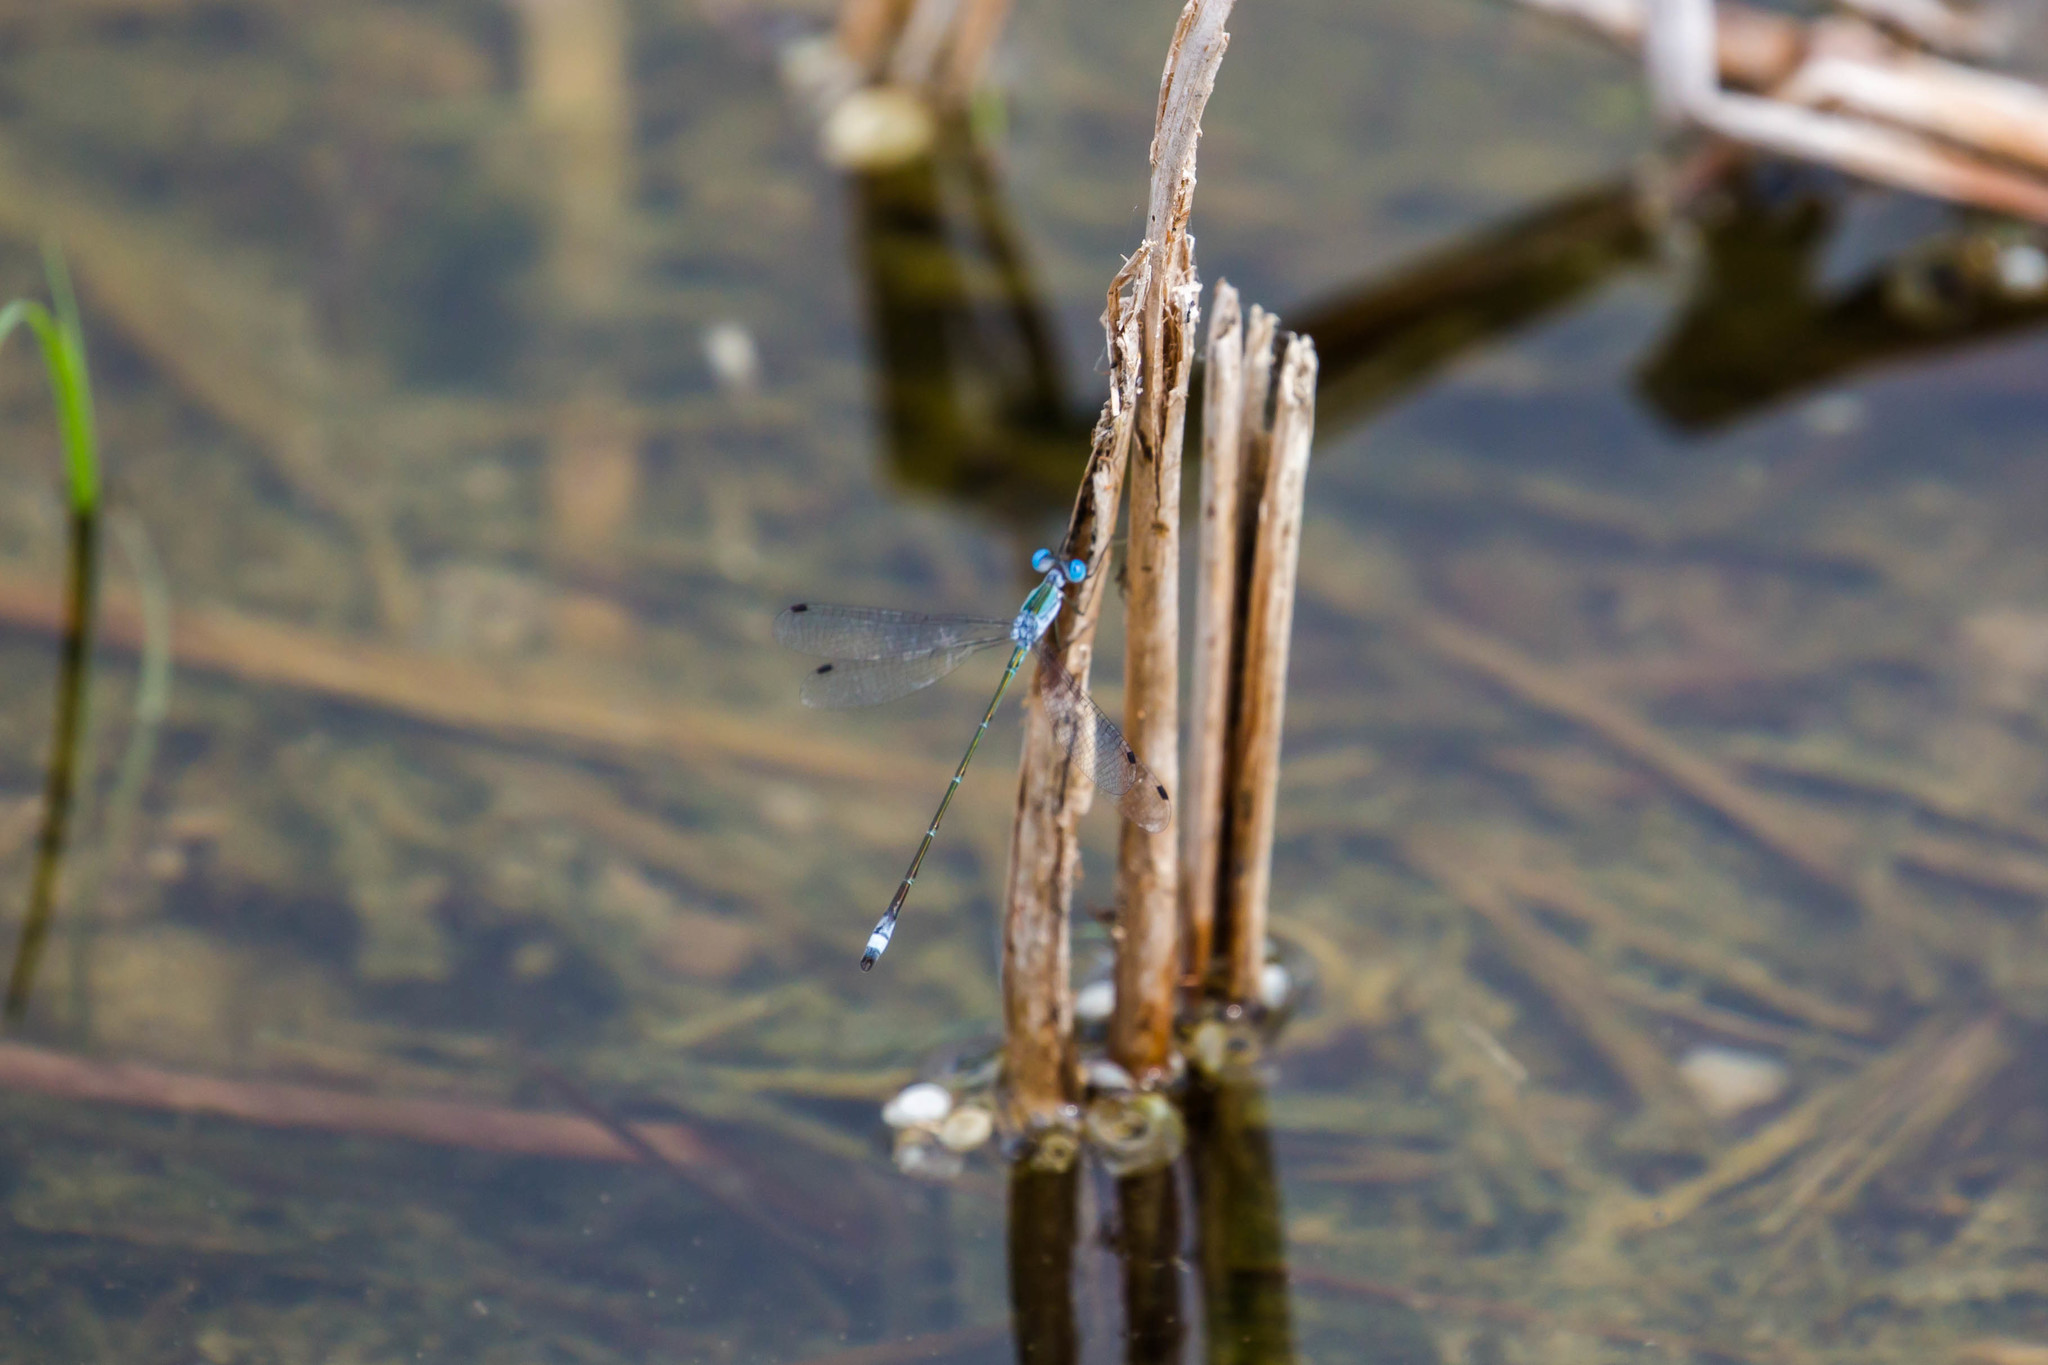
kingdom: Animalia
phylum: Arthropoda
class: Insecta
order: Odonata
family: Lestidae
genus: Lestes
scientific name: Lestes forficula
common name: Rainpool spreadwing
